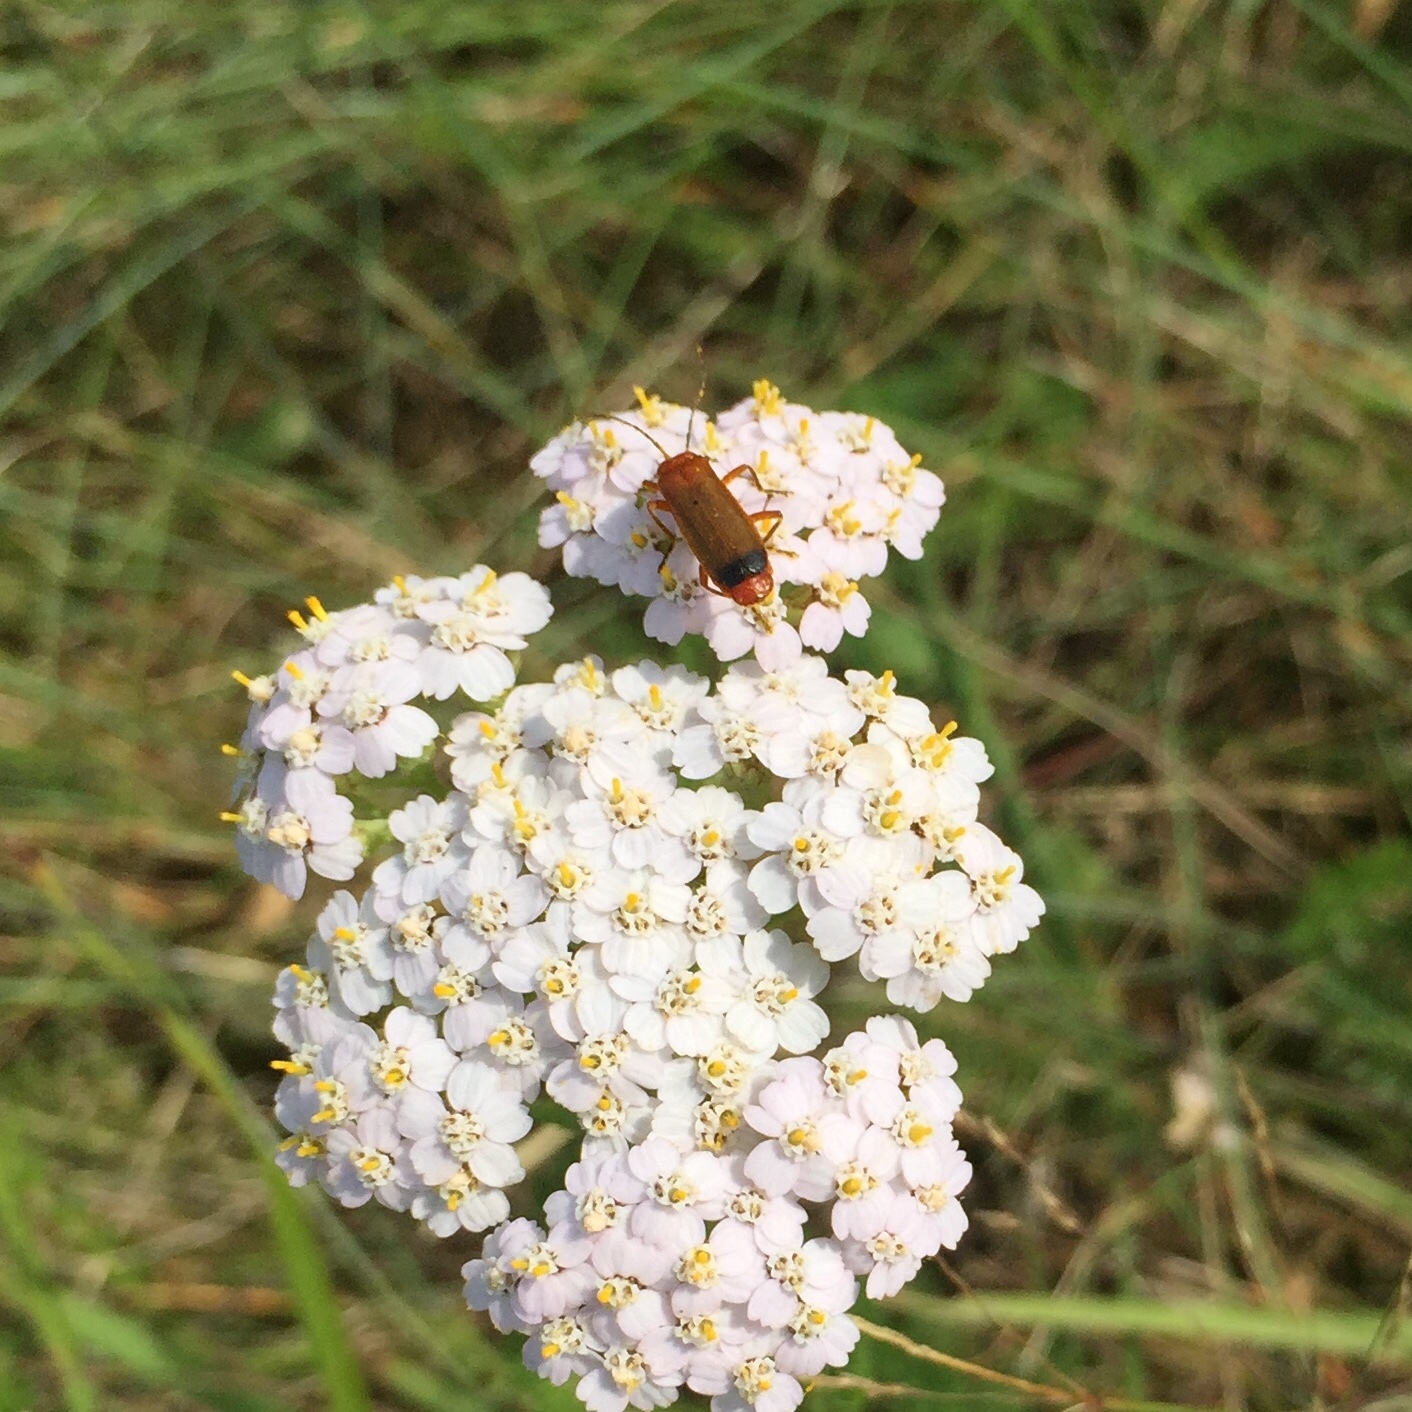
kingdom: Animalia
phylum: Arthropoda
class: Insecta
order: Coleoptera
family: Cantharidae
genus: Rhagonycha
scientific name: Rhagonycha fulva
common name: Common red soldier beetle
